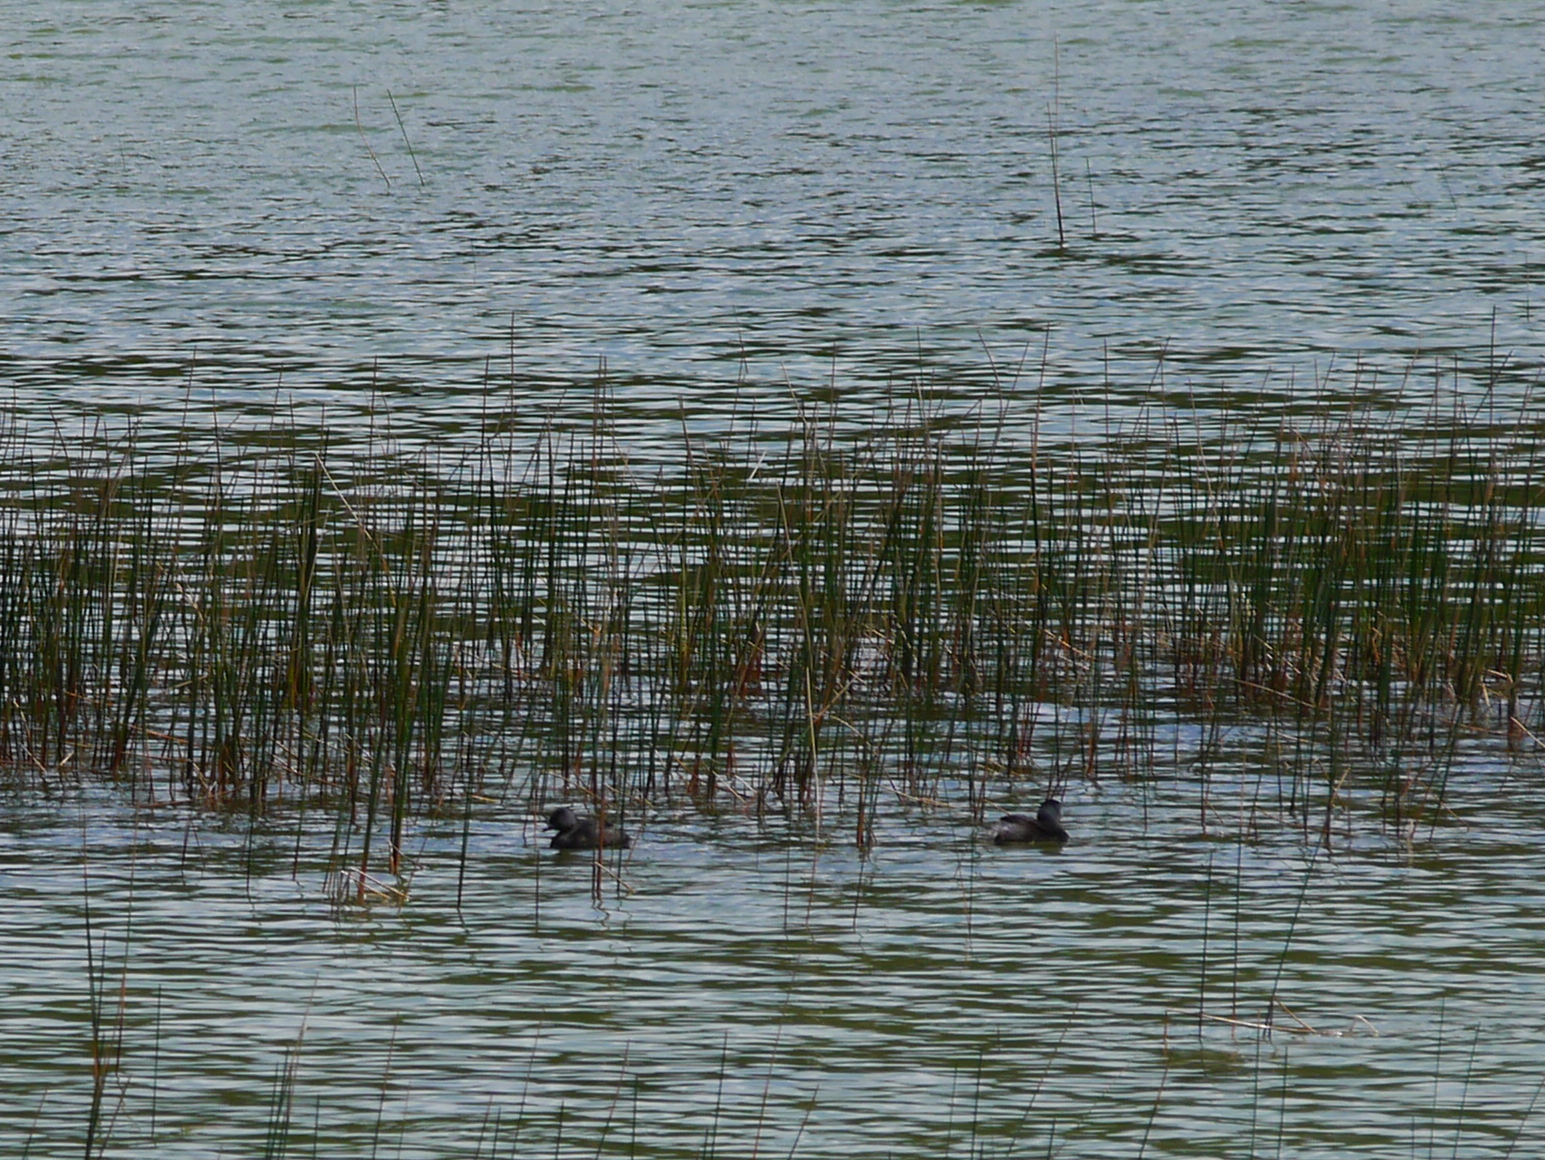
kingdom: Animalia
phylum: Chordata
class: Aves
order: Podicipediformes
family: Podicipedidae
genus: Tachybaptus
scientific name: Tachybaptus dominicus
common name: Least grebe
